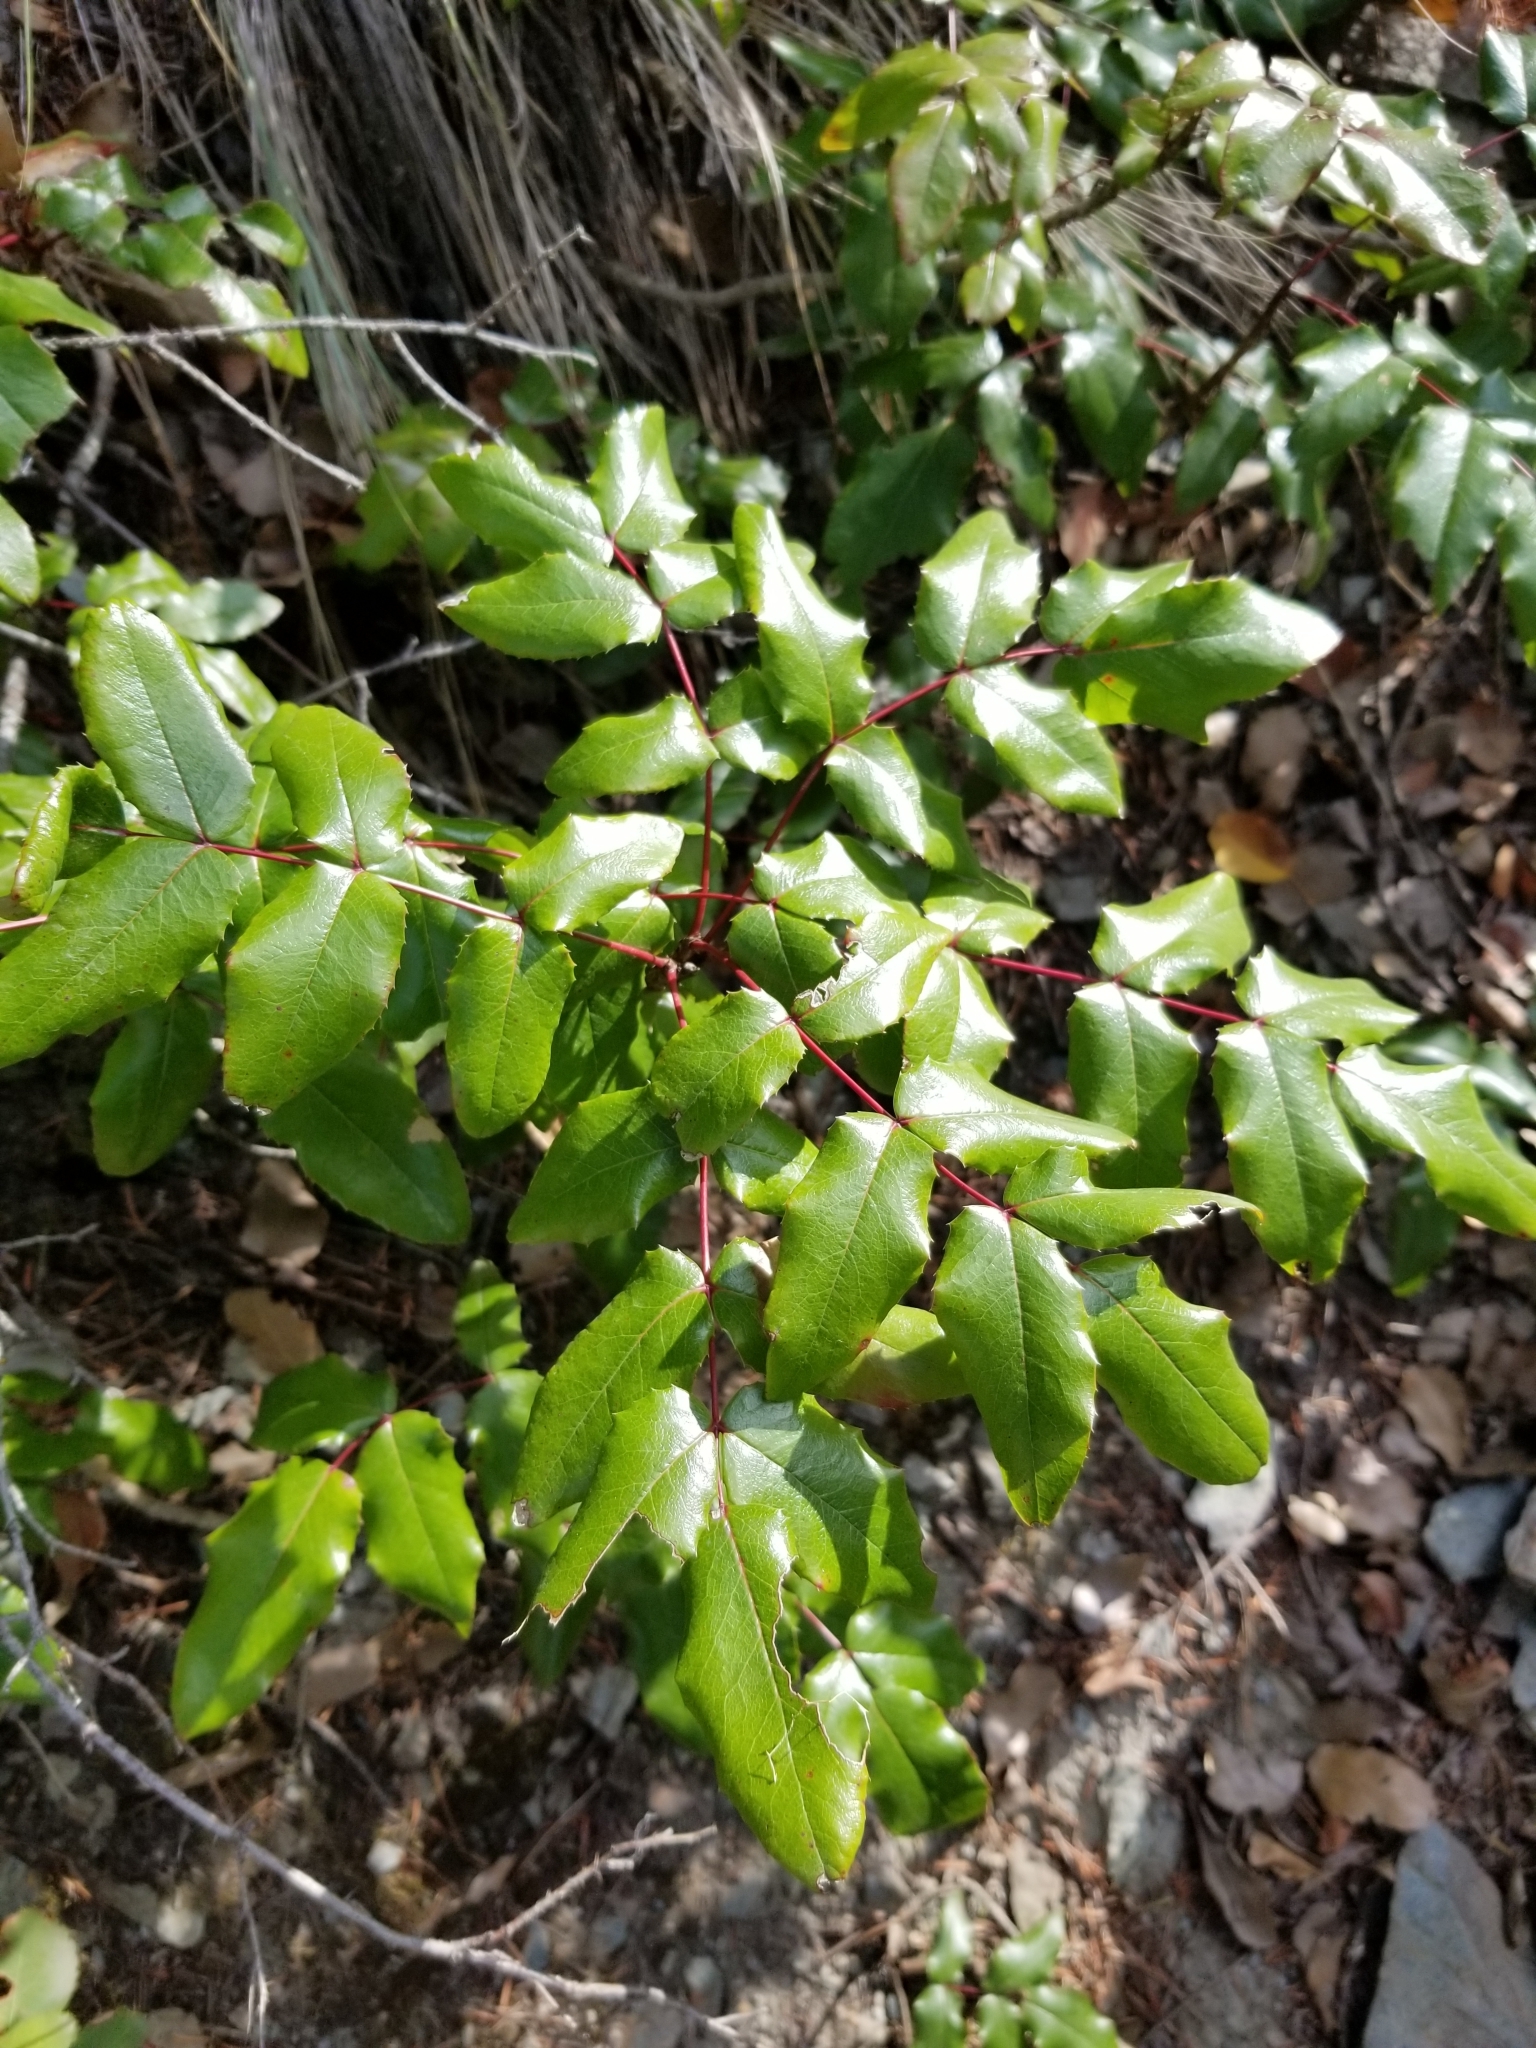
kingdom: Plantae
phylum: Tracheophyta
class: Magnoliopsida
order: Ranunculales
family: Berberidaceae
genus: Mahonia
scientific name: Mahonia aquifolium
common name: Oregon-grape
